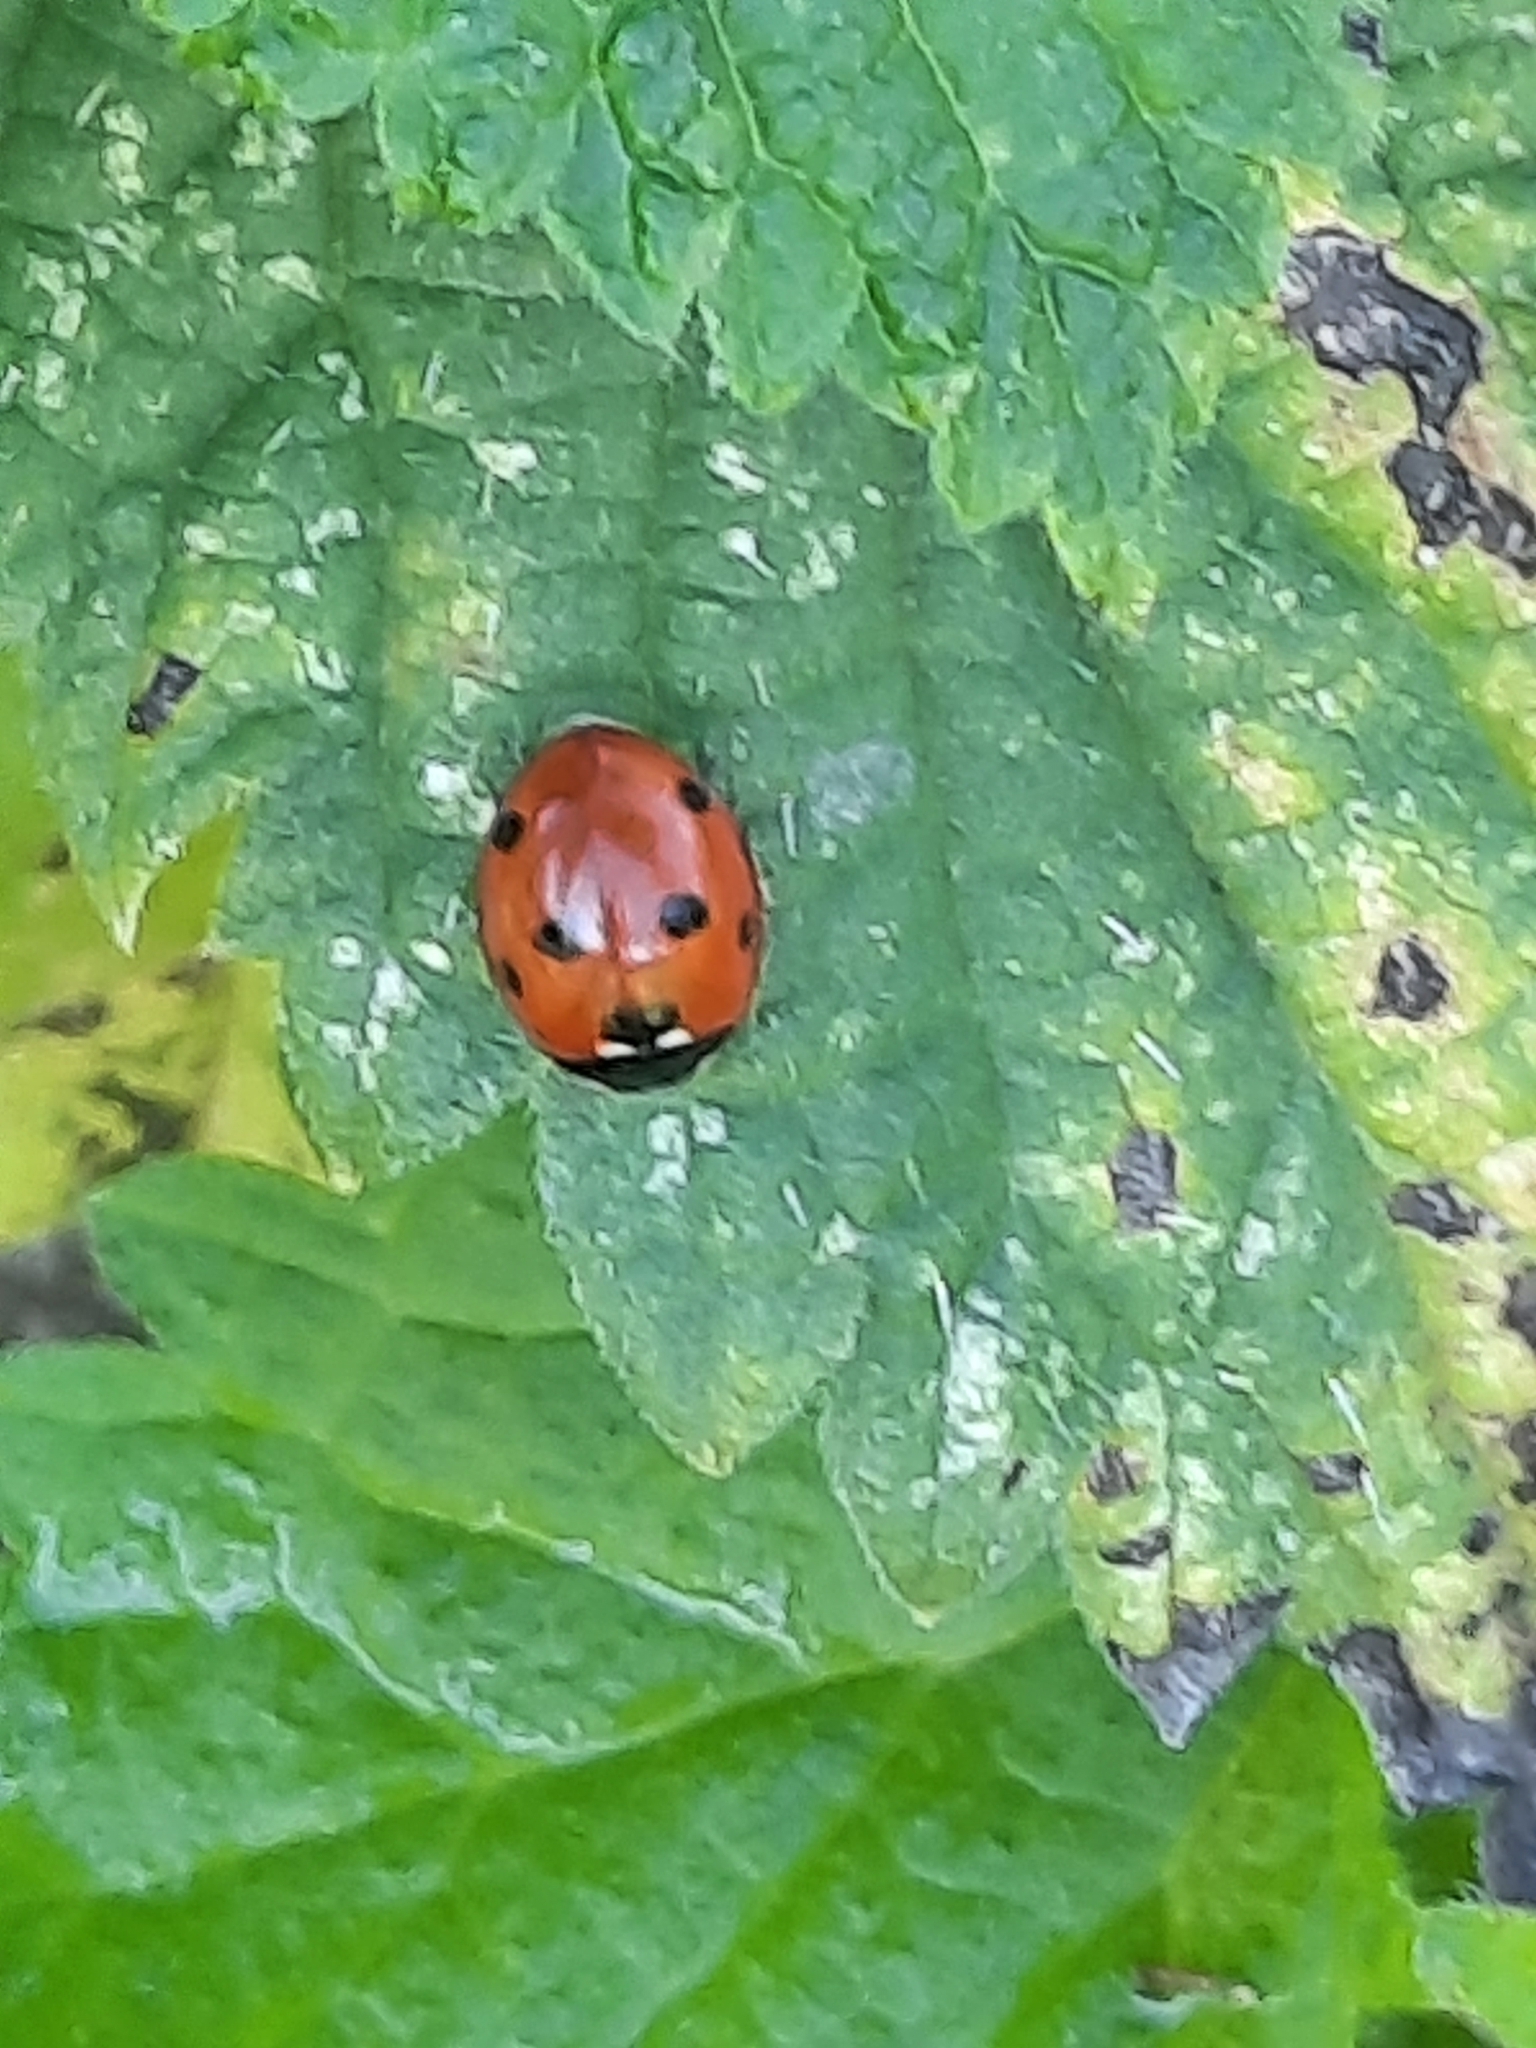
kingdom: Animalia
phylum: Arthropoda
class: Insecta
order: Coleoptera
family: Coccinellidae
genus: Coccinella
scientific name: Coccinella septempunctata
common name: Sevenspotted lady beetle
